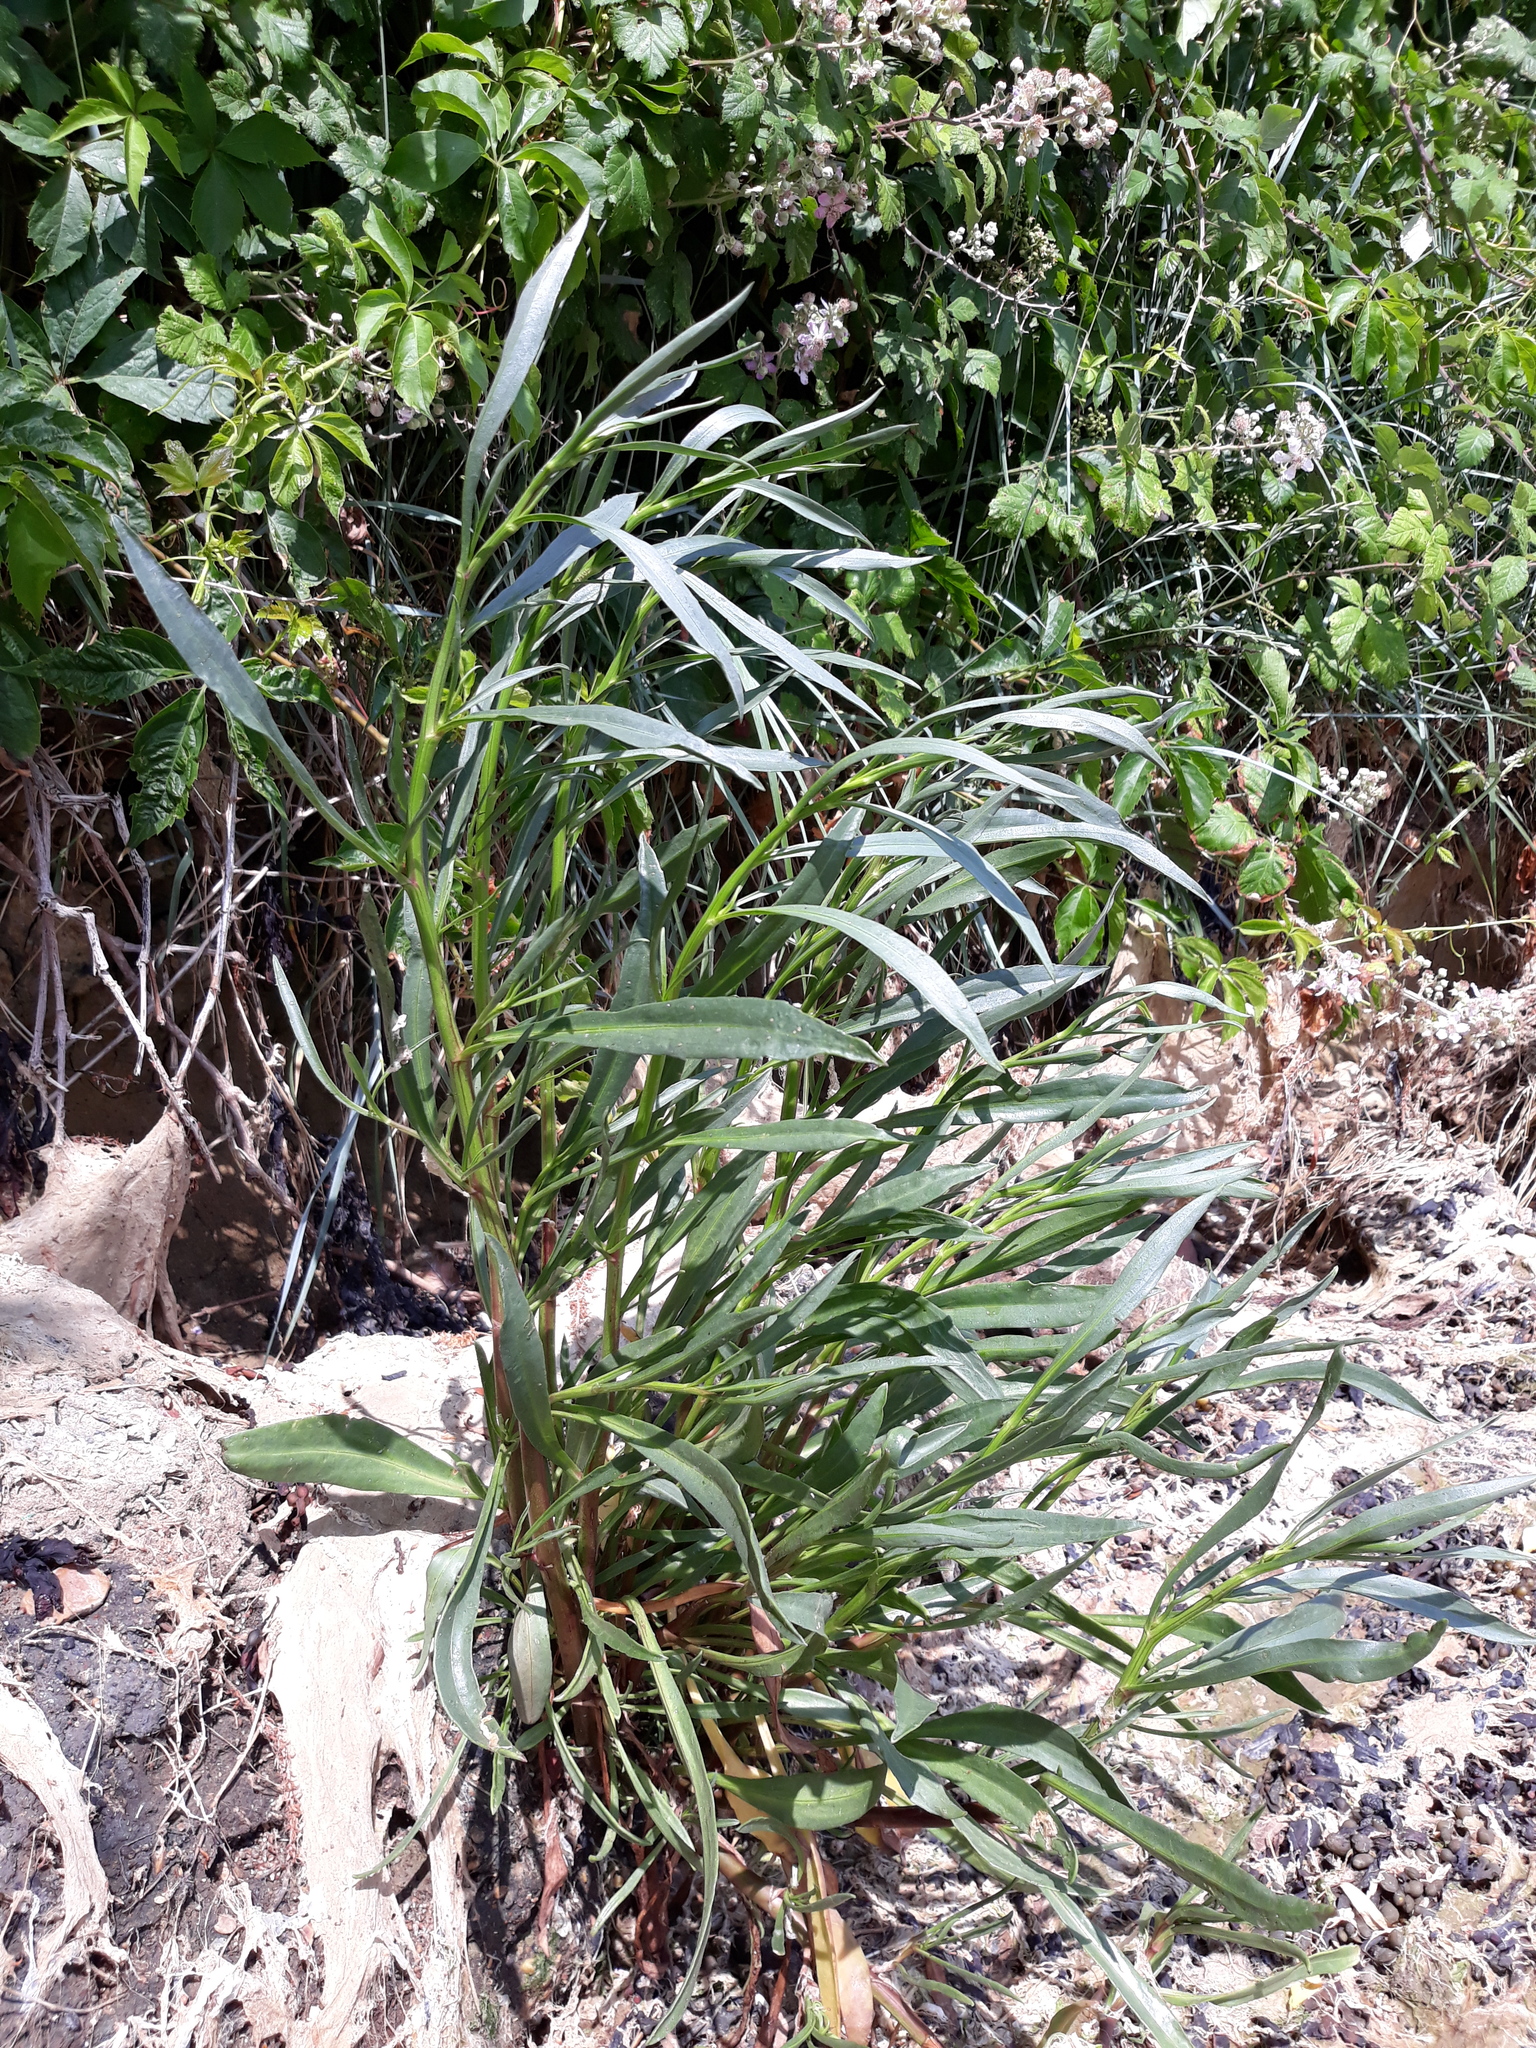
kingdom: Plantae
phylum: Tracheophyta
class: Magnoliopsida
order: Asterales
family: Asteraceae
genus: Tripolium
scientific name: Tripolium pannonicum
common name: Sea aster
